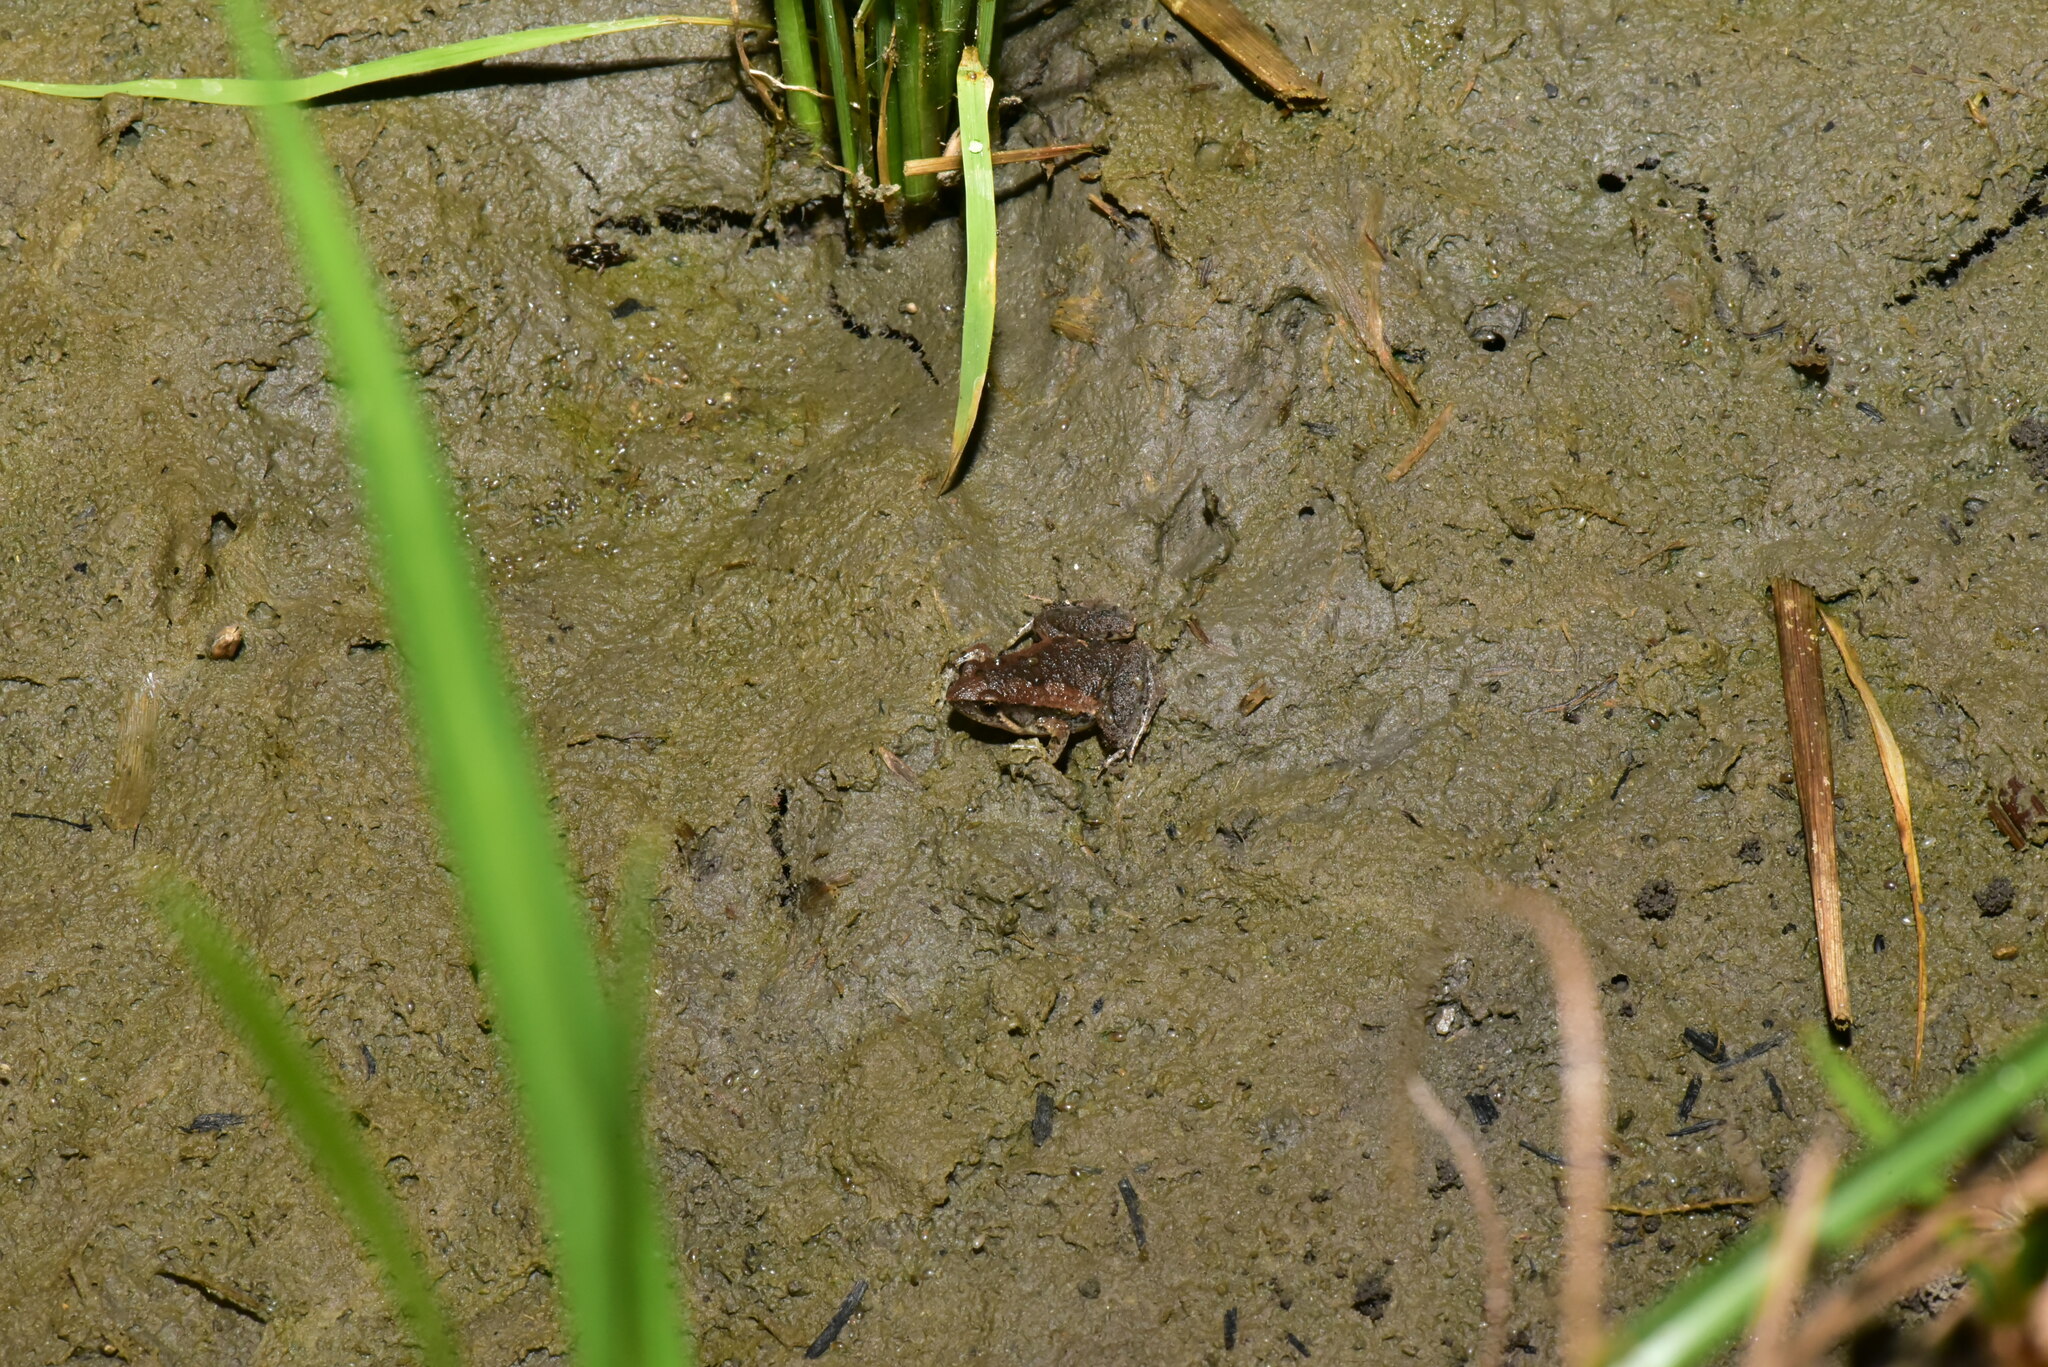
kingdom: Animalia
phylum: Chordata
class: Amphibia
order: Anura
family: Microhylidae
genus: Microhyla
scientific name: Microhyla fissipes
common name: Ornate narrow-mouthed frog
